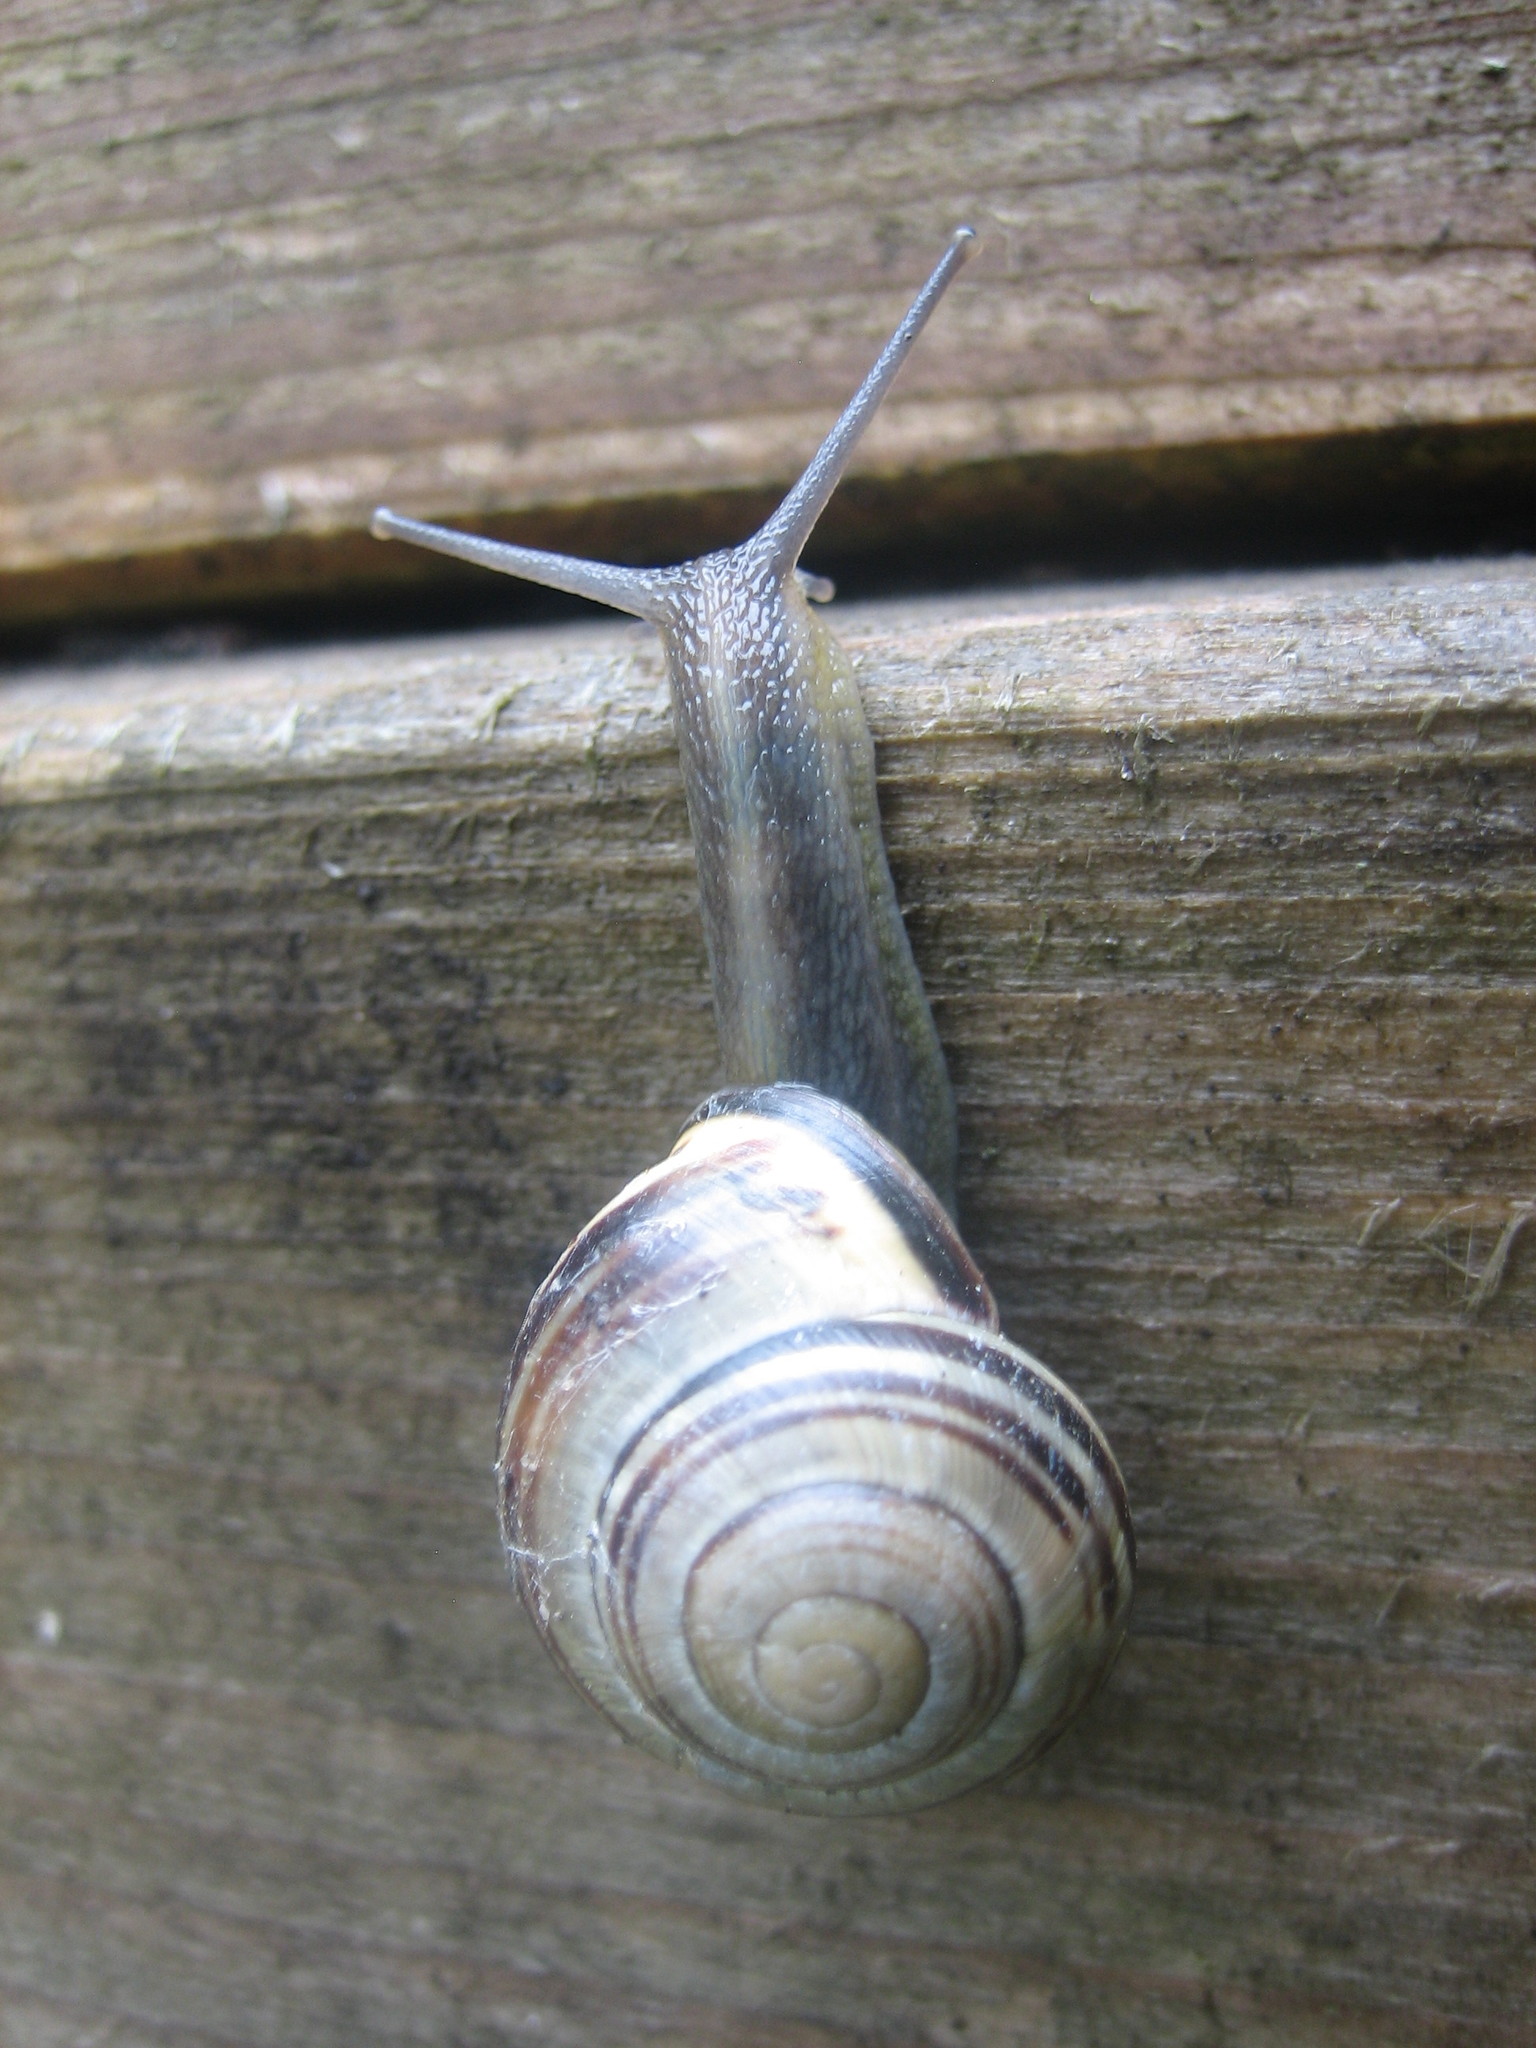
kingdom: Animalia
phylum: Mollusca
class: Gastropoda
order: Stylommatophora
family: Helicidae
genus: Cepaea
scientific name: Cepaea nemoralis
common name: Grovesnail
